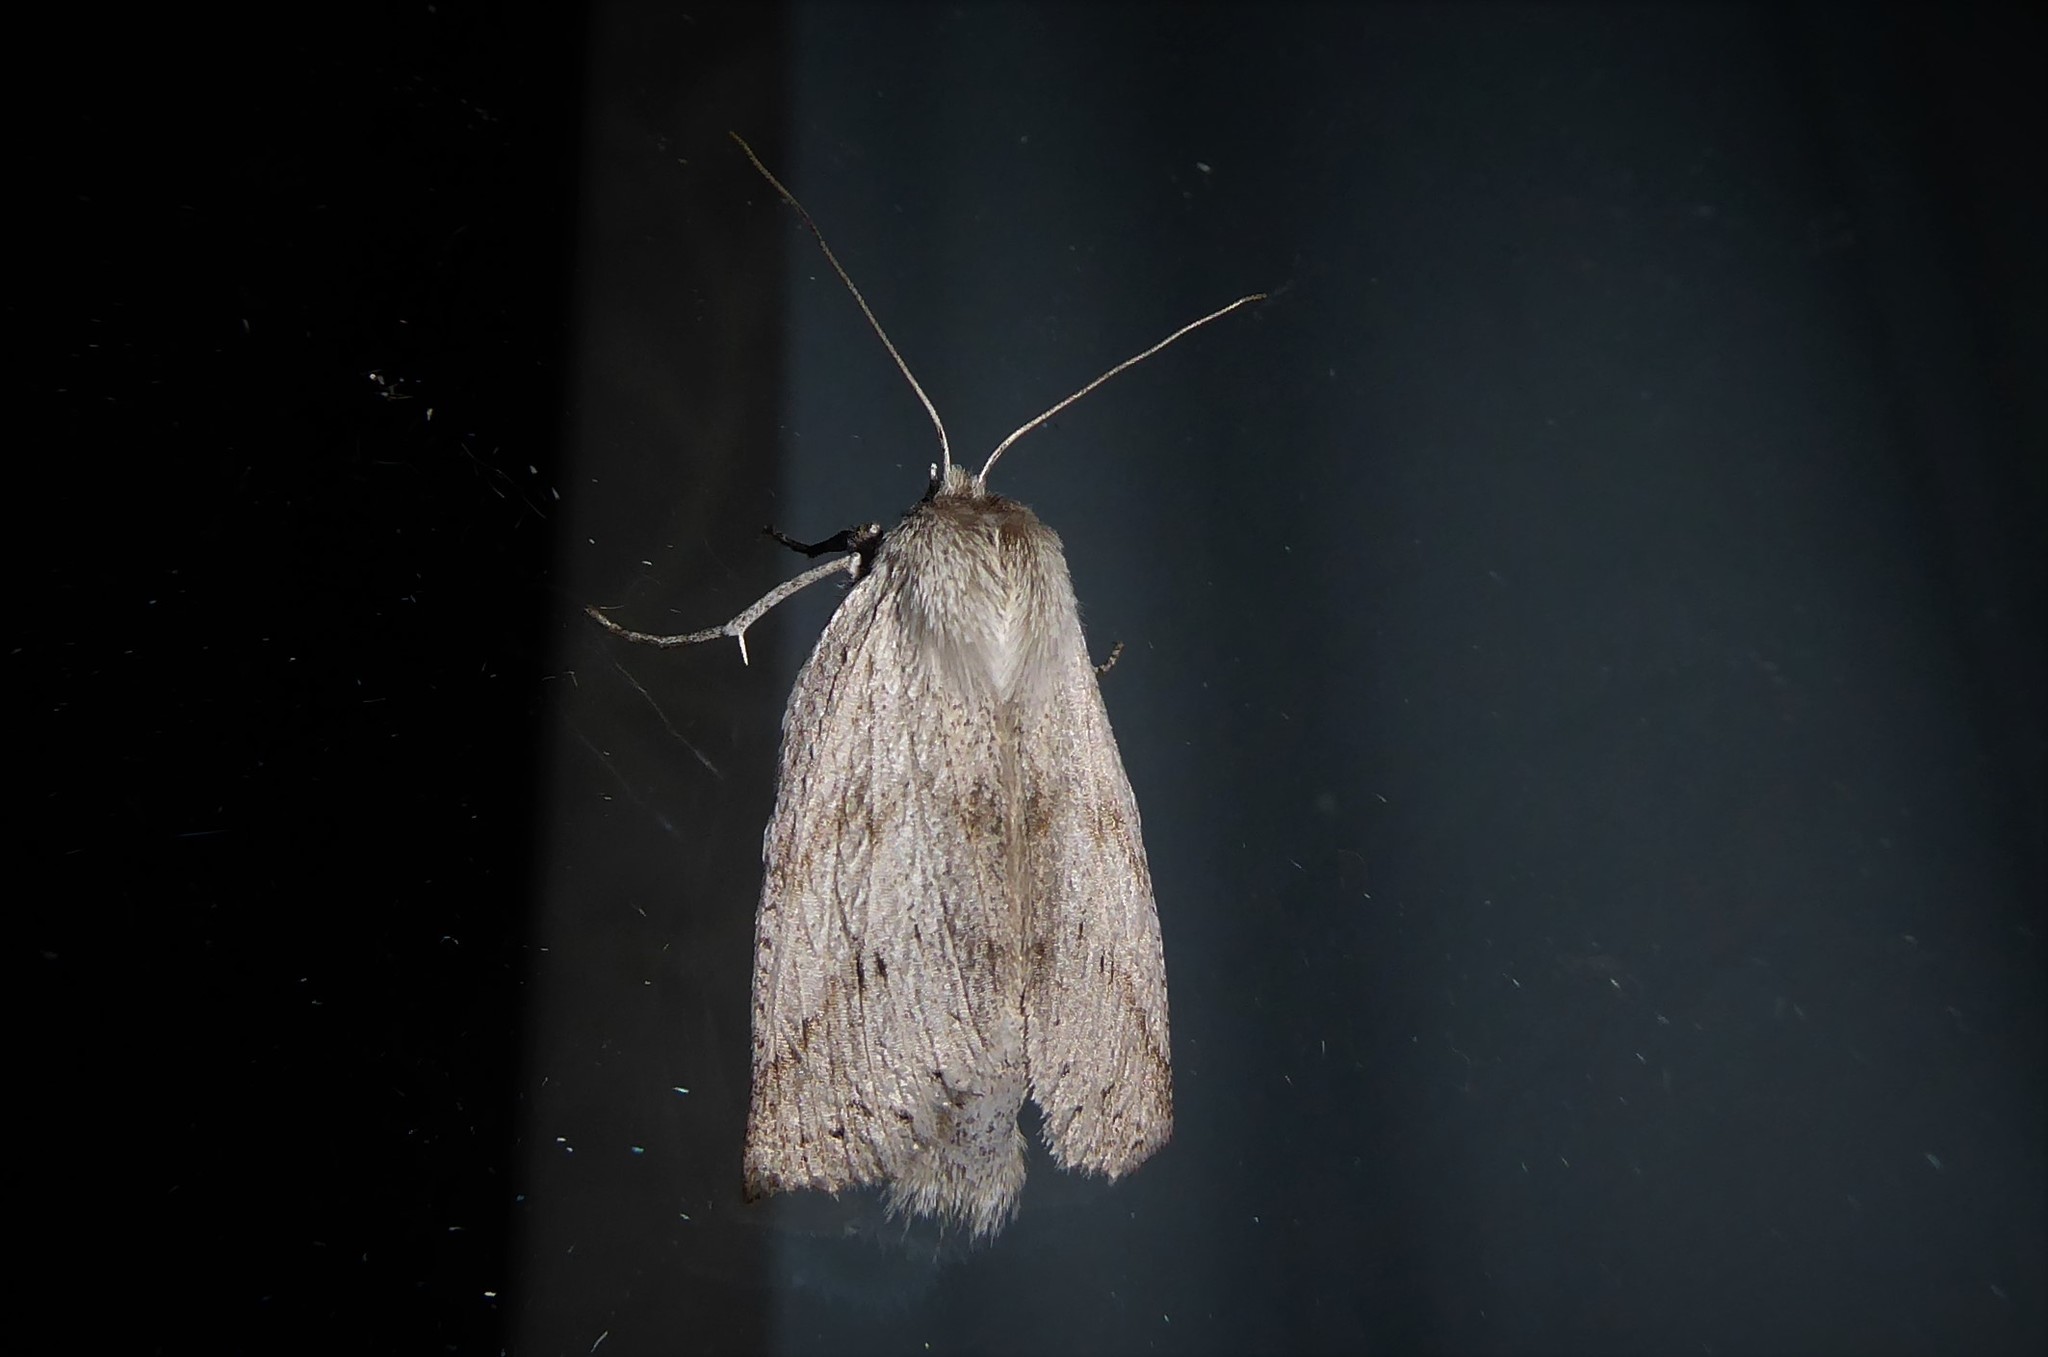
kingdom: Animalia
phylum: Arthropoda
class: Insecta
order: Lepidoptera
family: Geometridae
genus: Declana
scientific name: Declana leptomera
